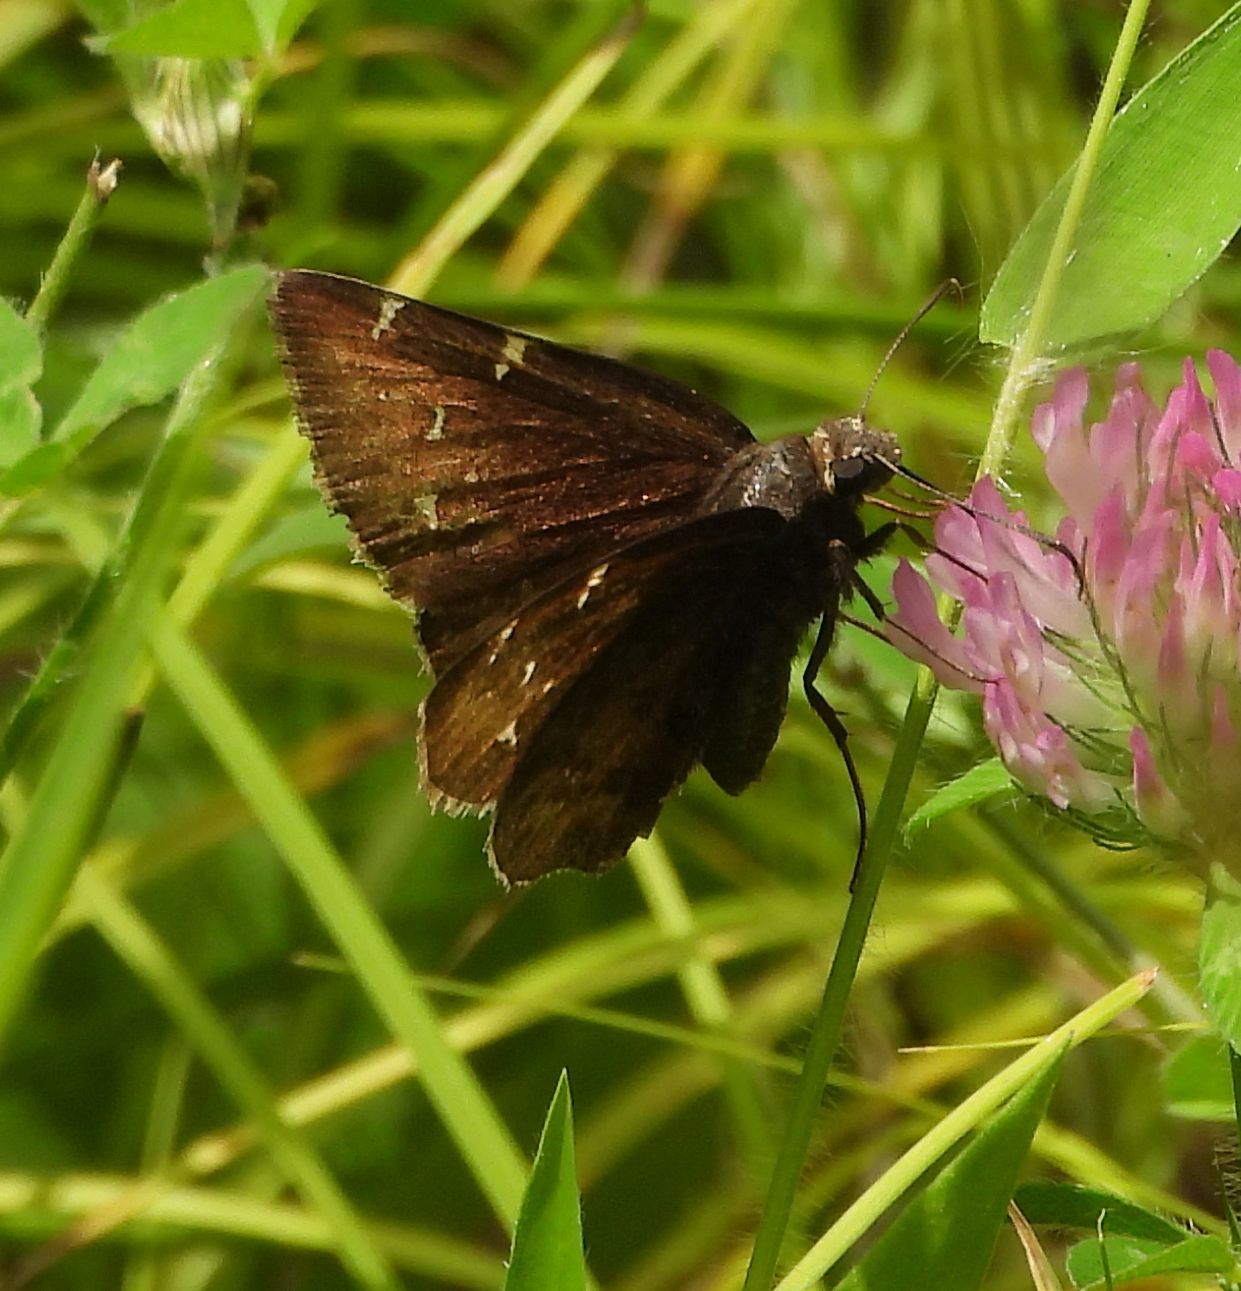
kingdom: Animalia
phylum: Arthropoda
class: Insecta
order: Lepidoptera
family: Hesperiidae
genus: Thorybes
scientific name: Thorybes pylades
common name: Northern cloudywing
